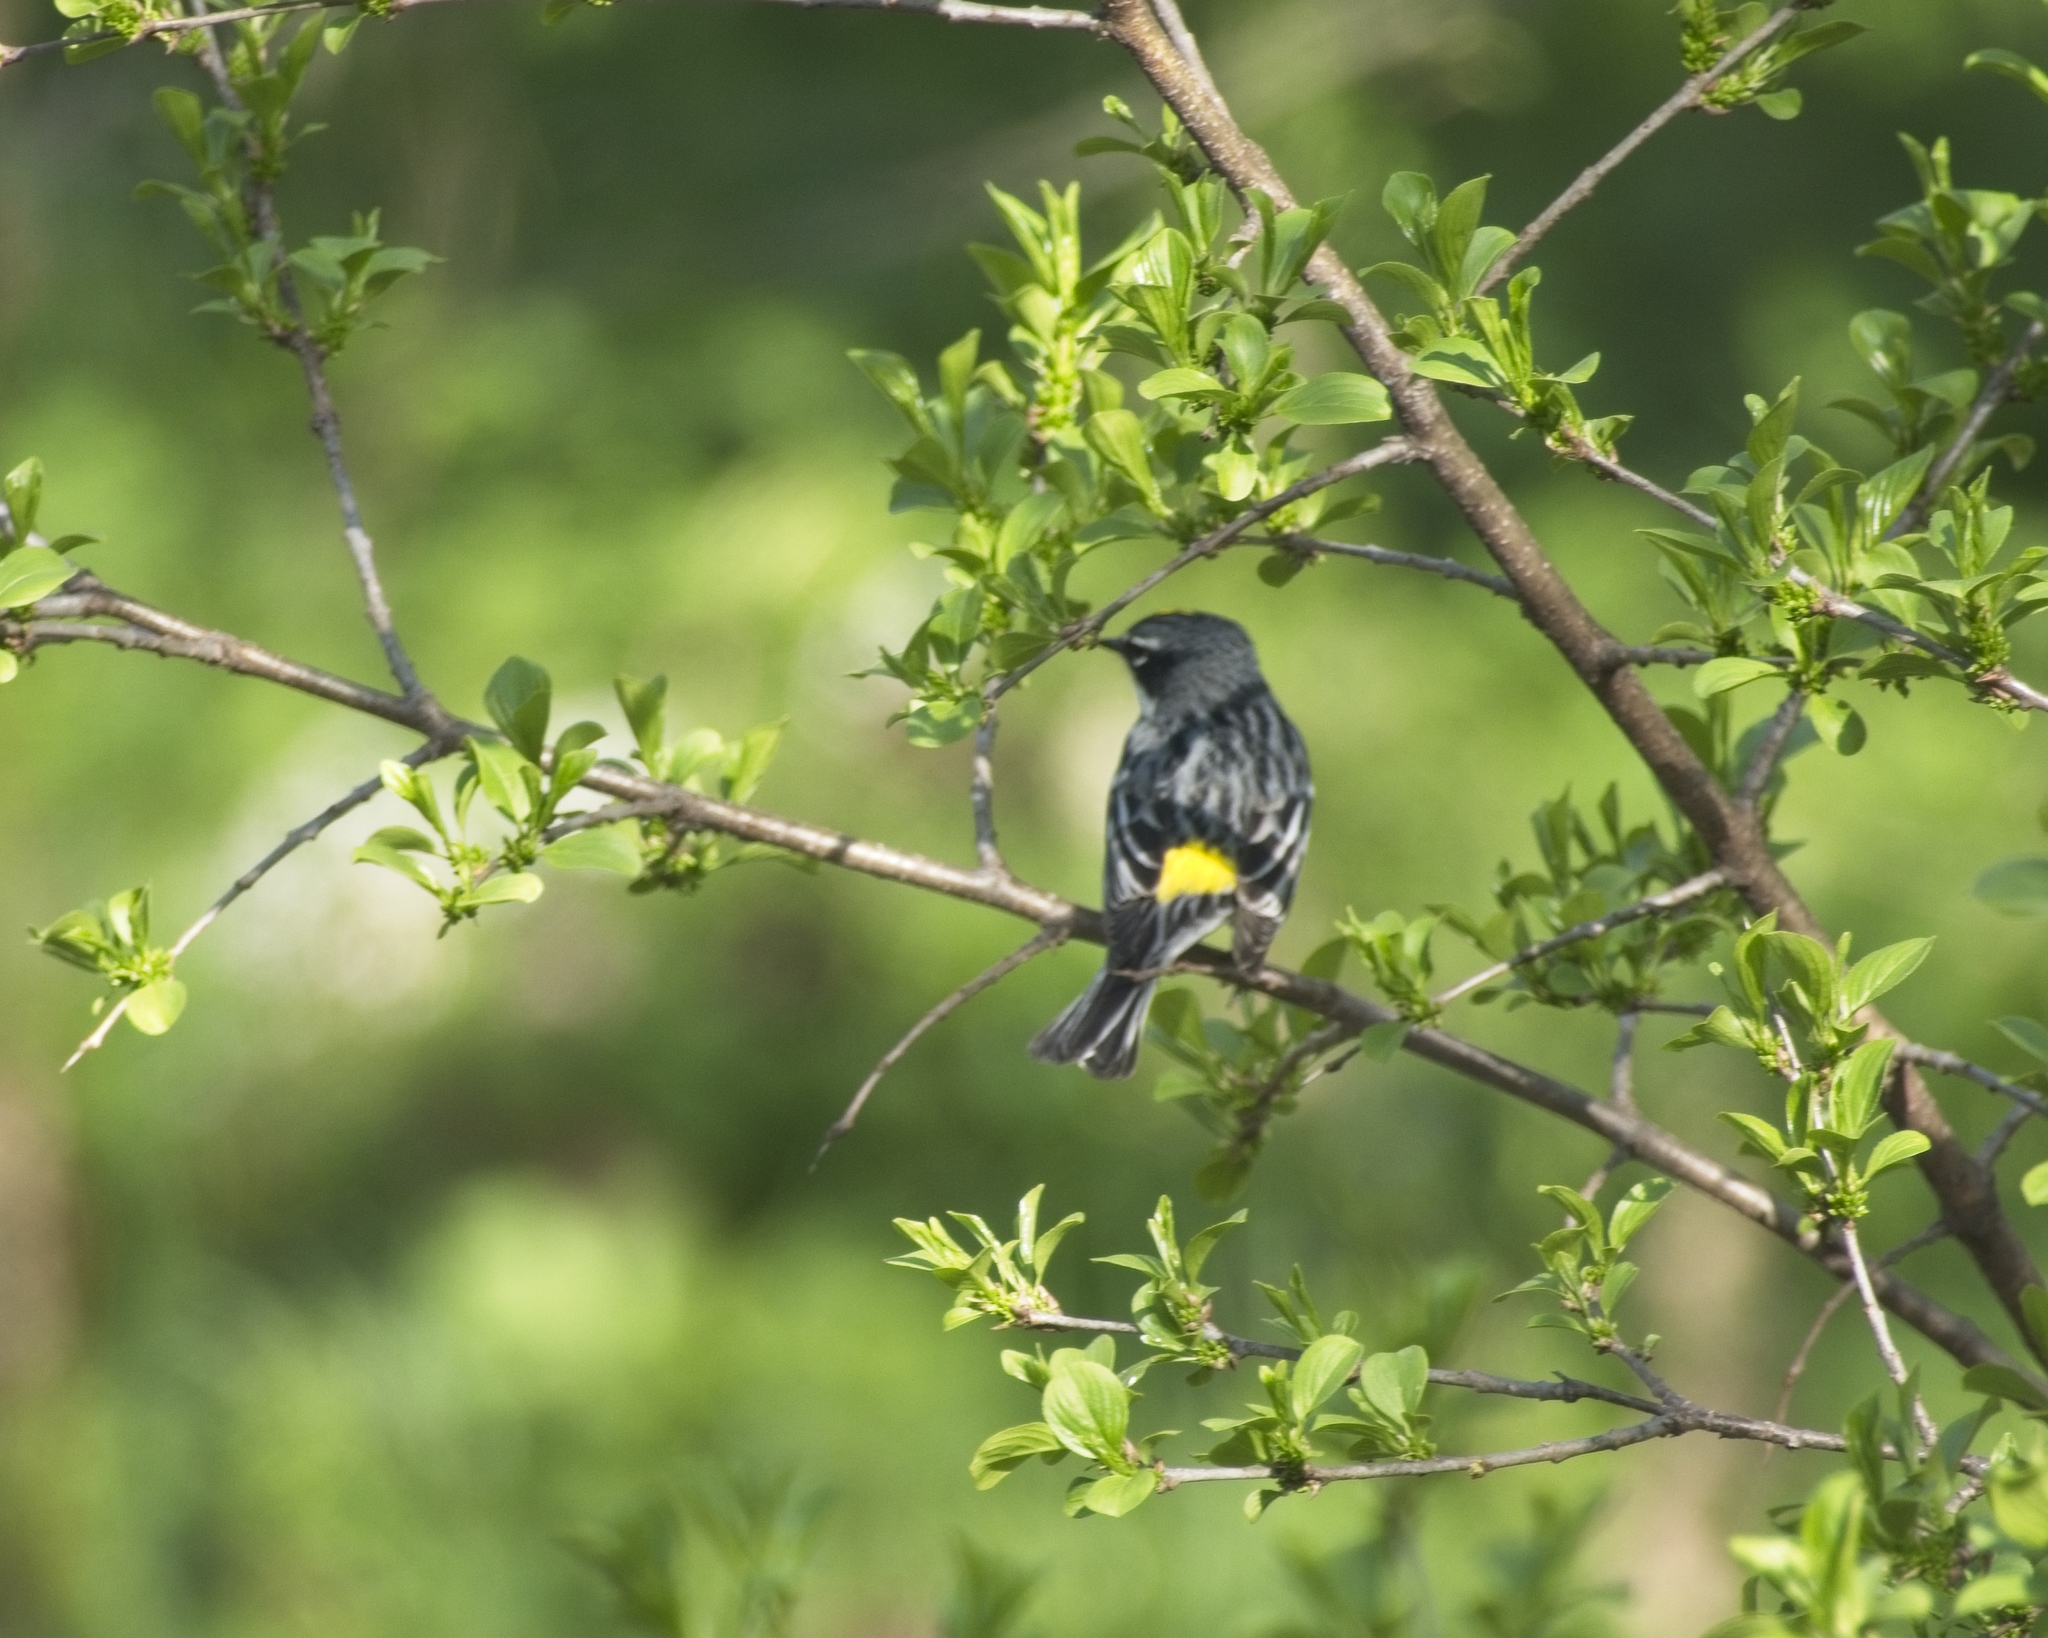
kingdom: Animalia
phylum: Chordata
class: Aves
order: Passeriformes
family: Parulidae
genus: Setophaga
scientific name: Setophaga coronata
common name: Myrtle warbler
